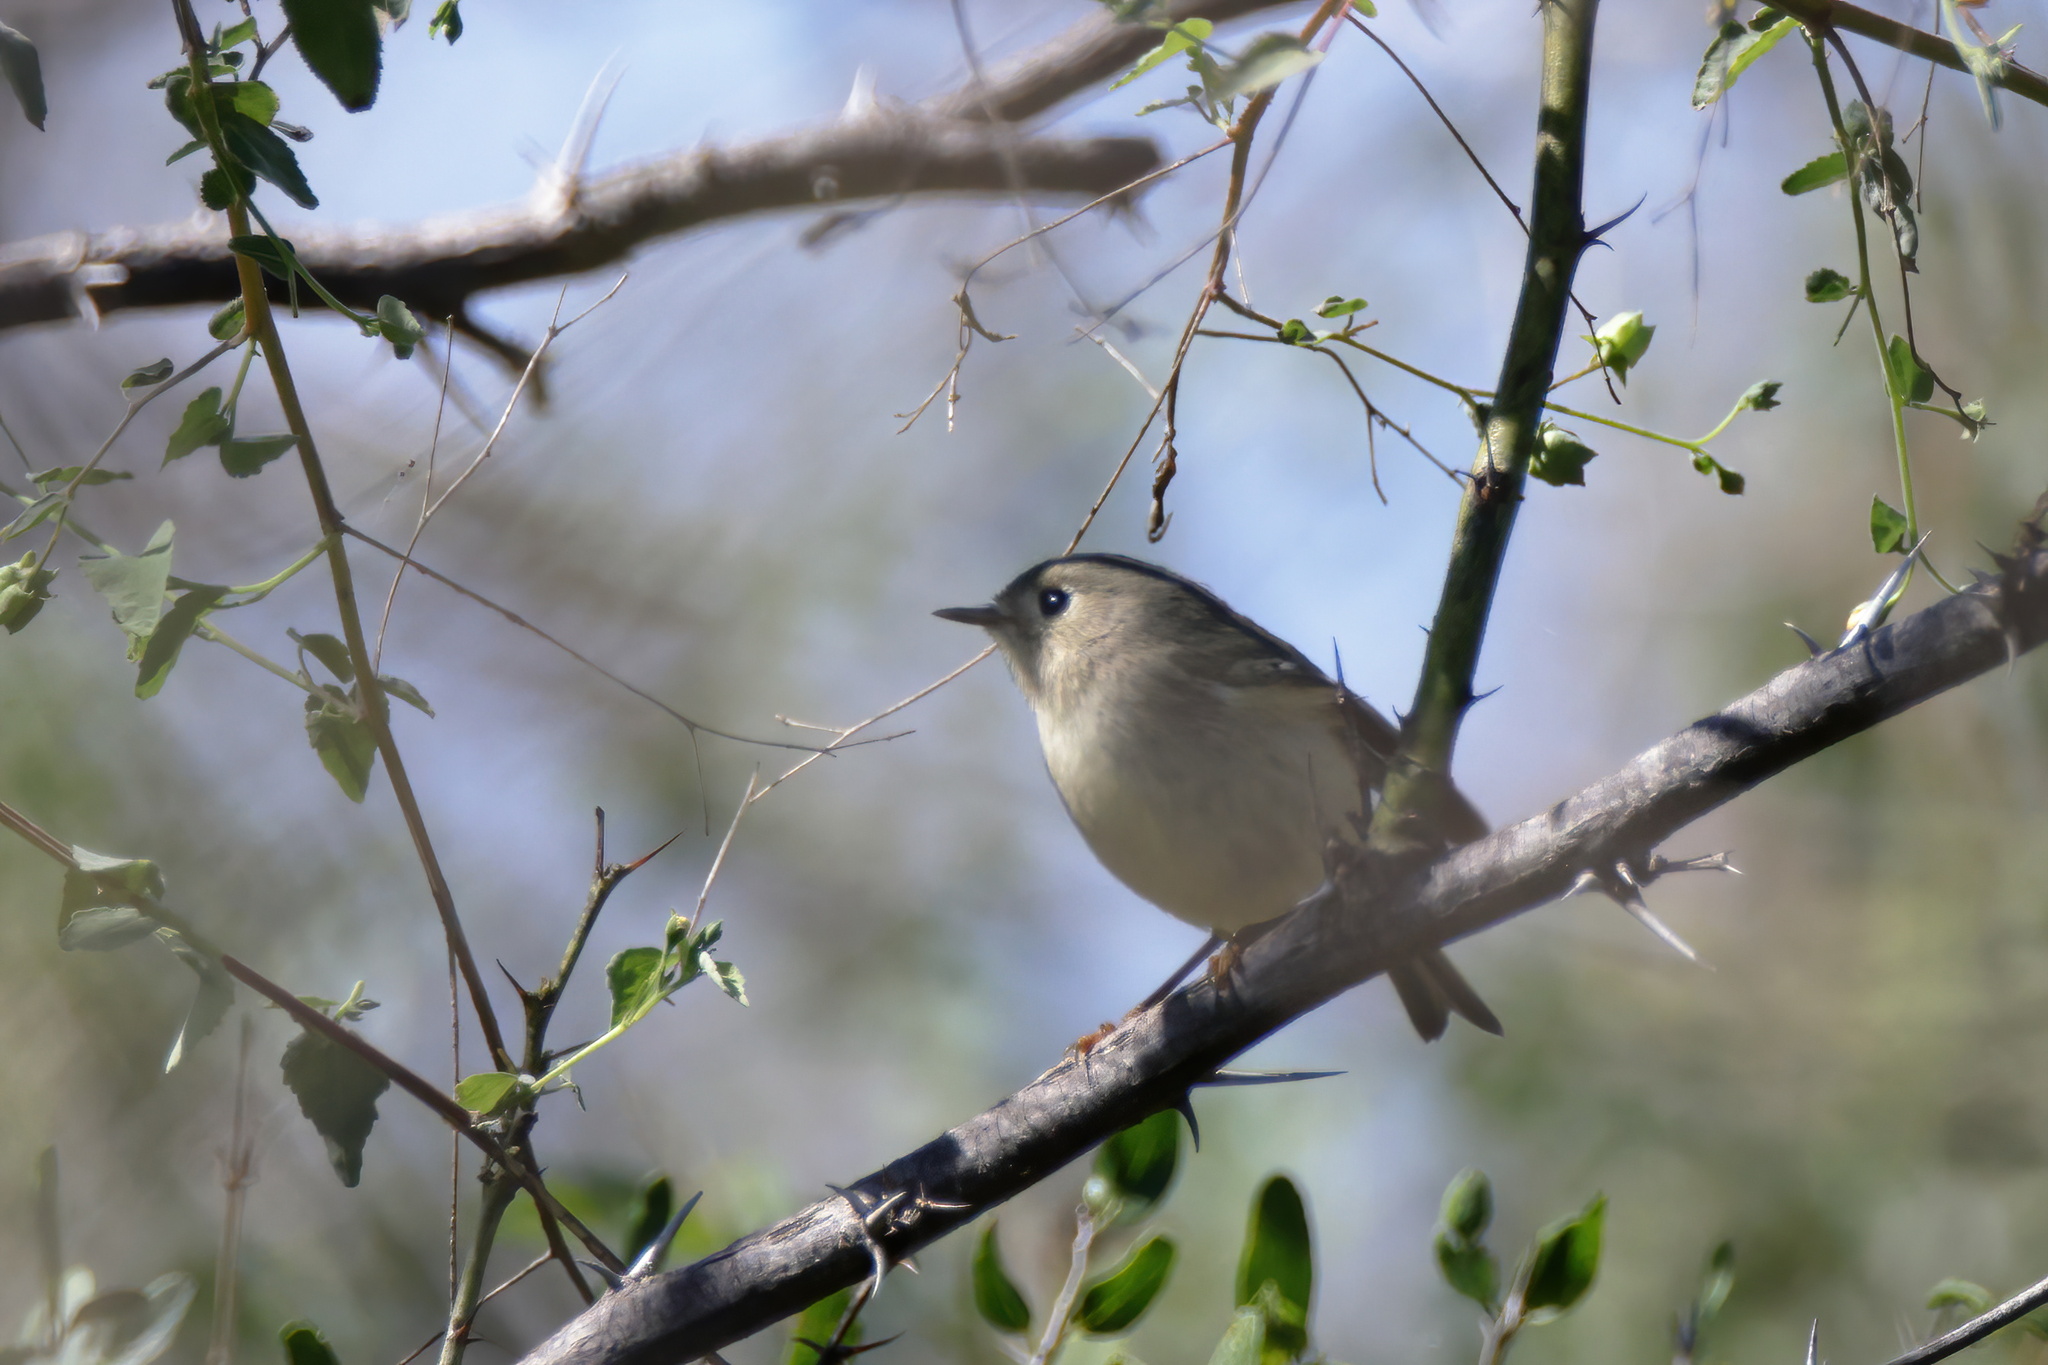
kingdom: Animalia
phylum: Chordata
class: Aves
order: Passeriformes
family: Regulidae
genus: Regulus
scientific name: Regulus calendula
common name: Ruby-crowned kinglet
